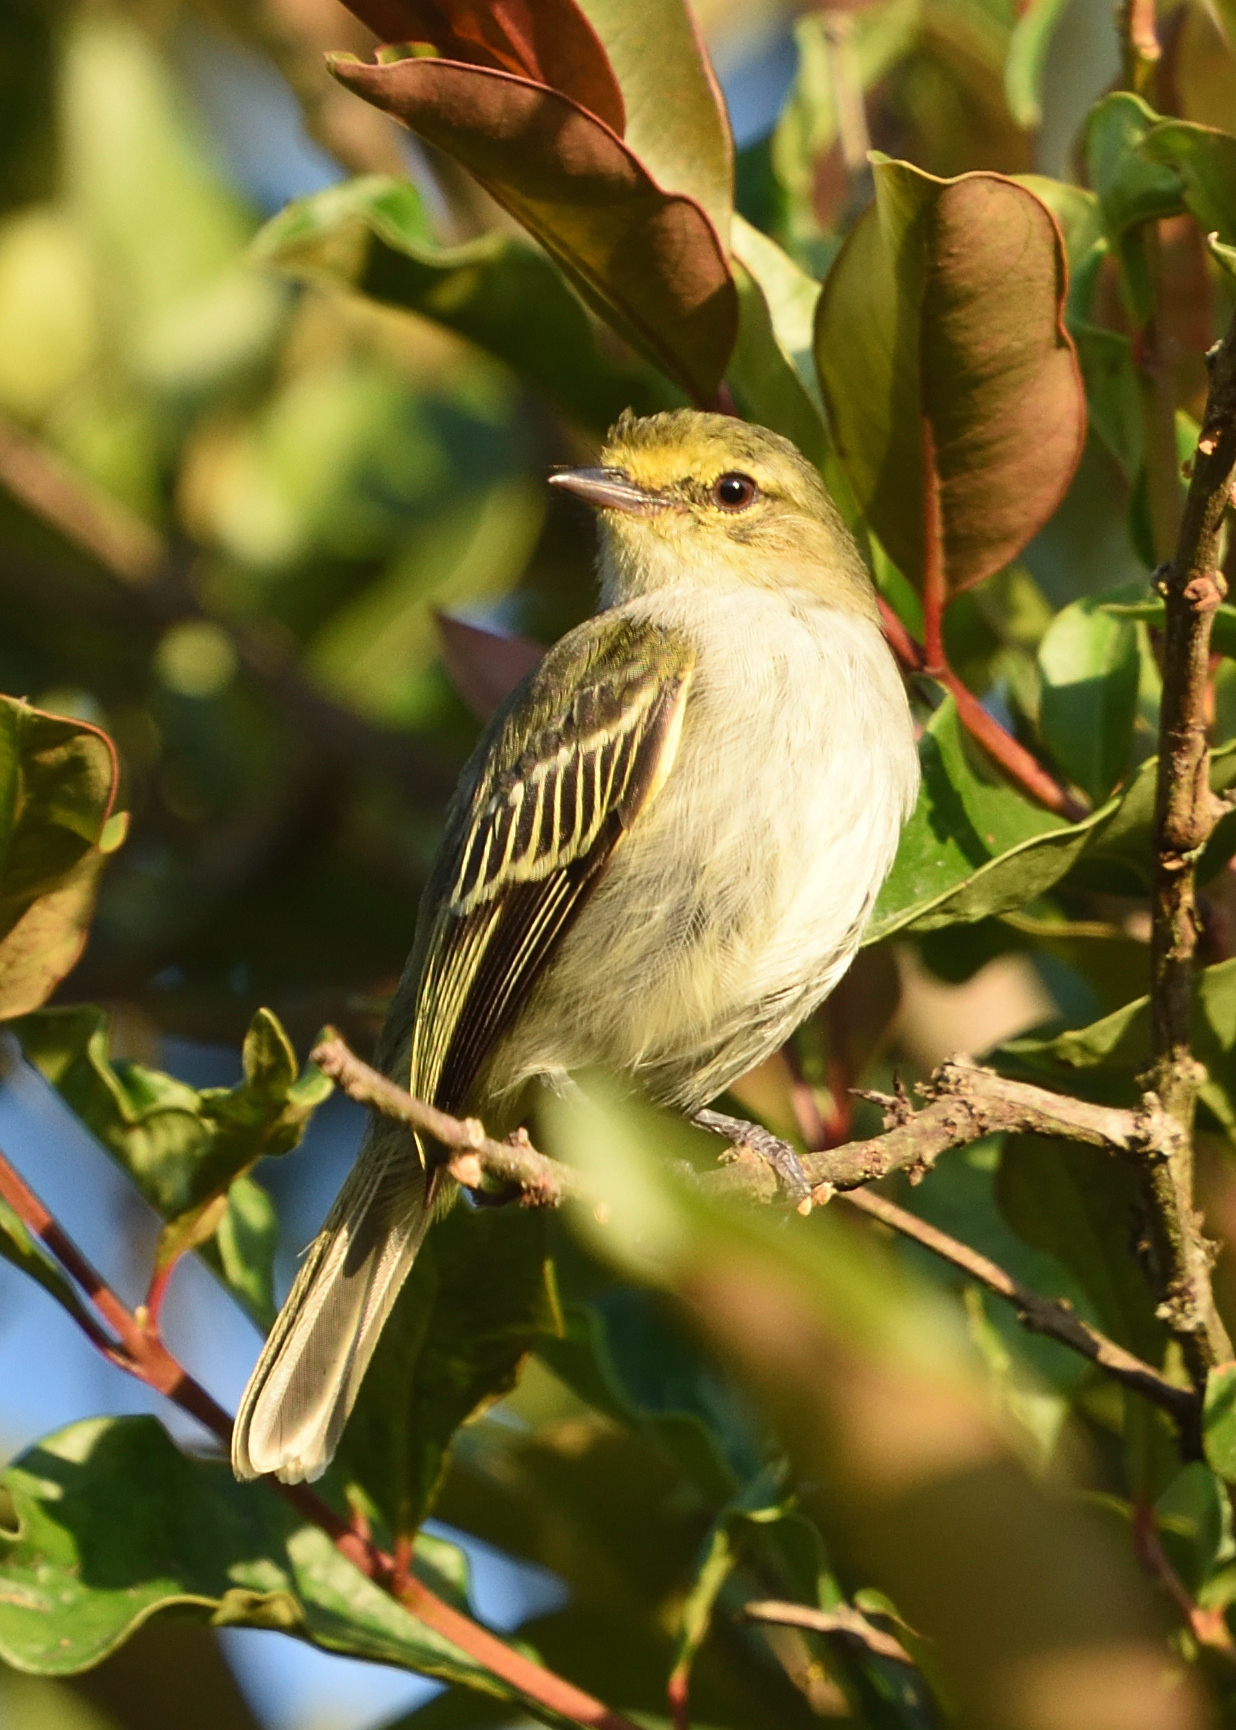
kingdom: Animalia
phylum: Chordata
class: Aves
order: Passeriformes
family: Tyrannidae
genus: Zimmerius
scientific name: Zimmerius chrysops
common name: Golden-faced tyrannulet
